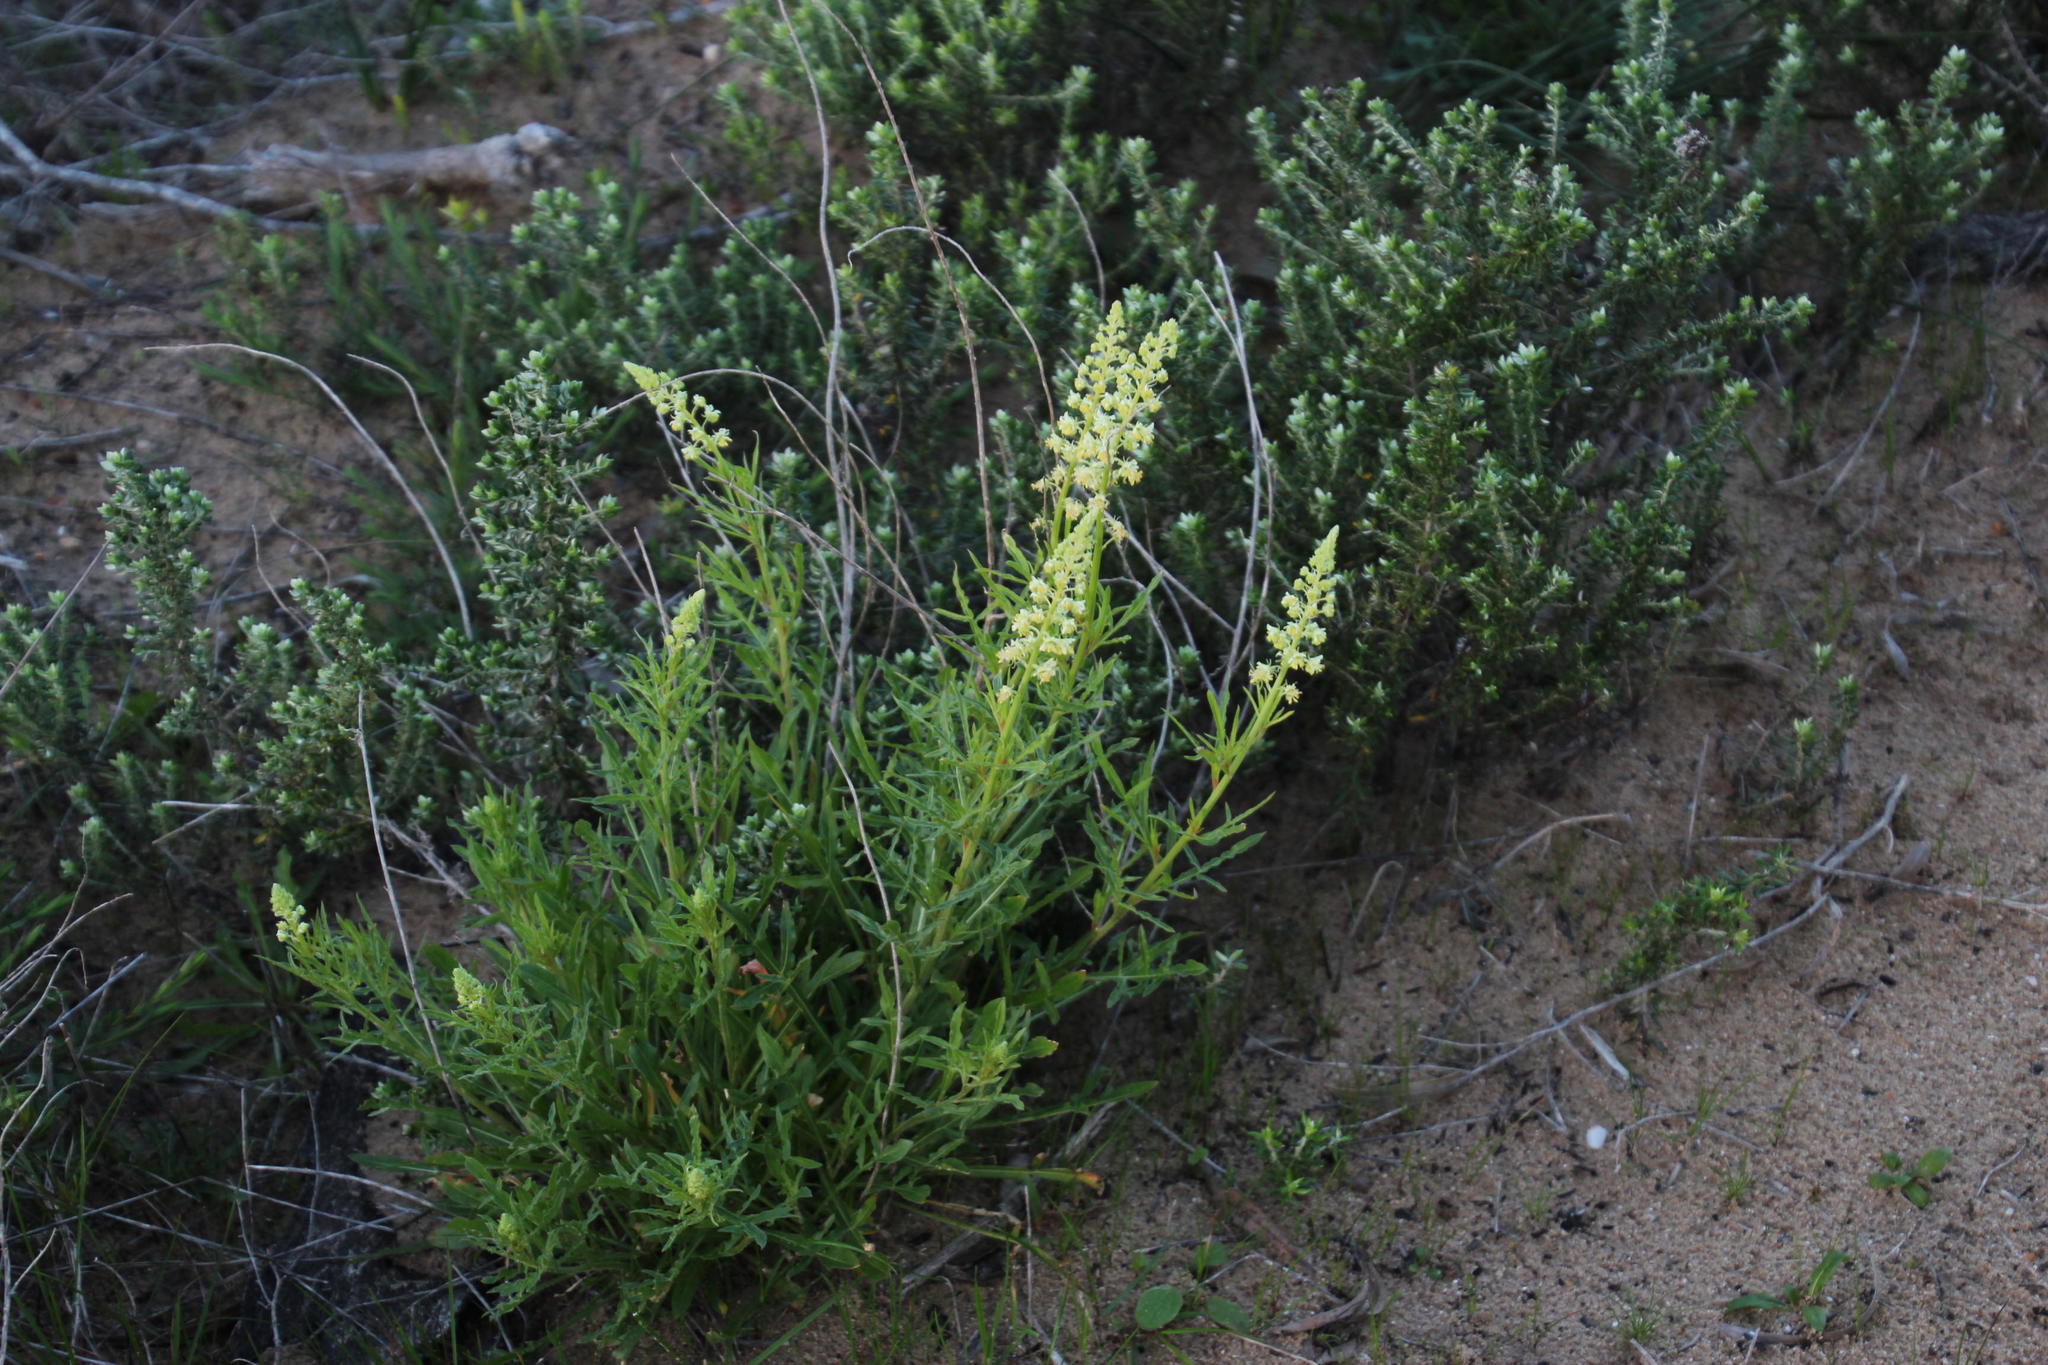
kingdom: Plantae
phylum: Tracheophyta
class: Magnoliopsida
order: Brassicales
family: Resedaceae
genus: Reseda
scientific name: Reseda lutea
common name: Wild mignonette
